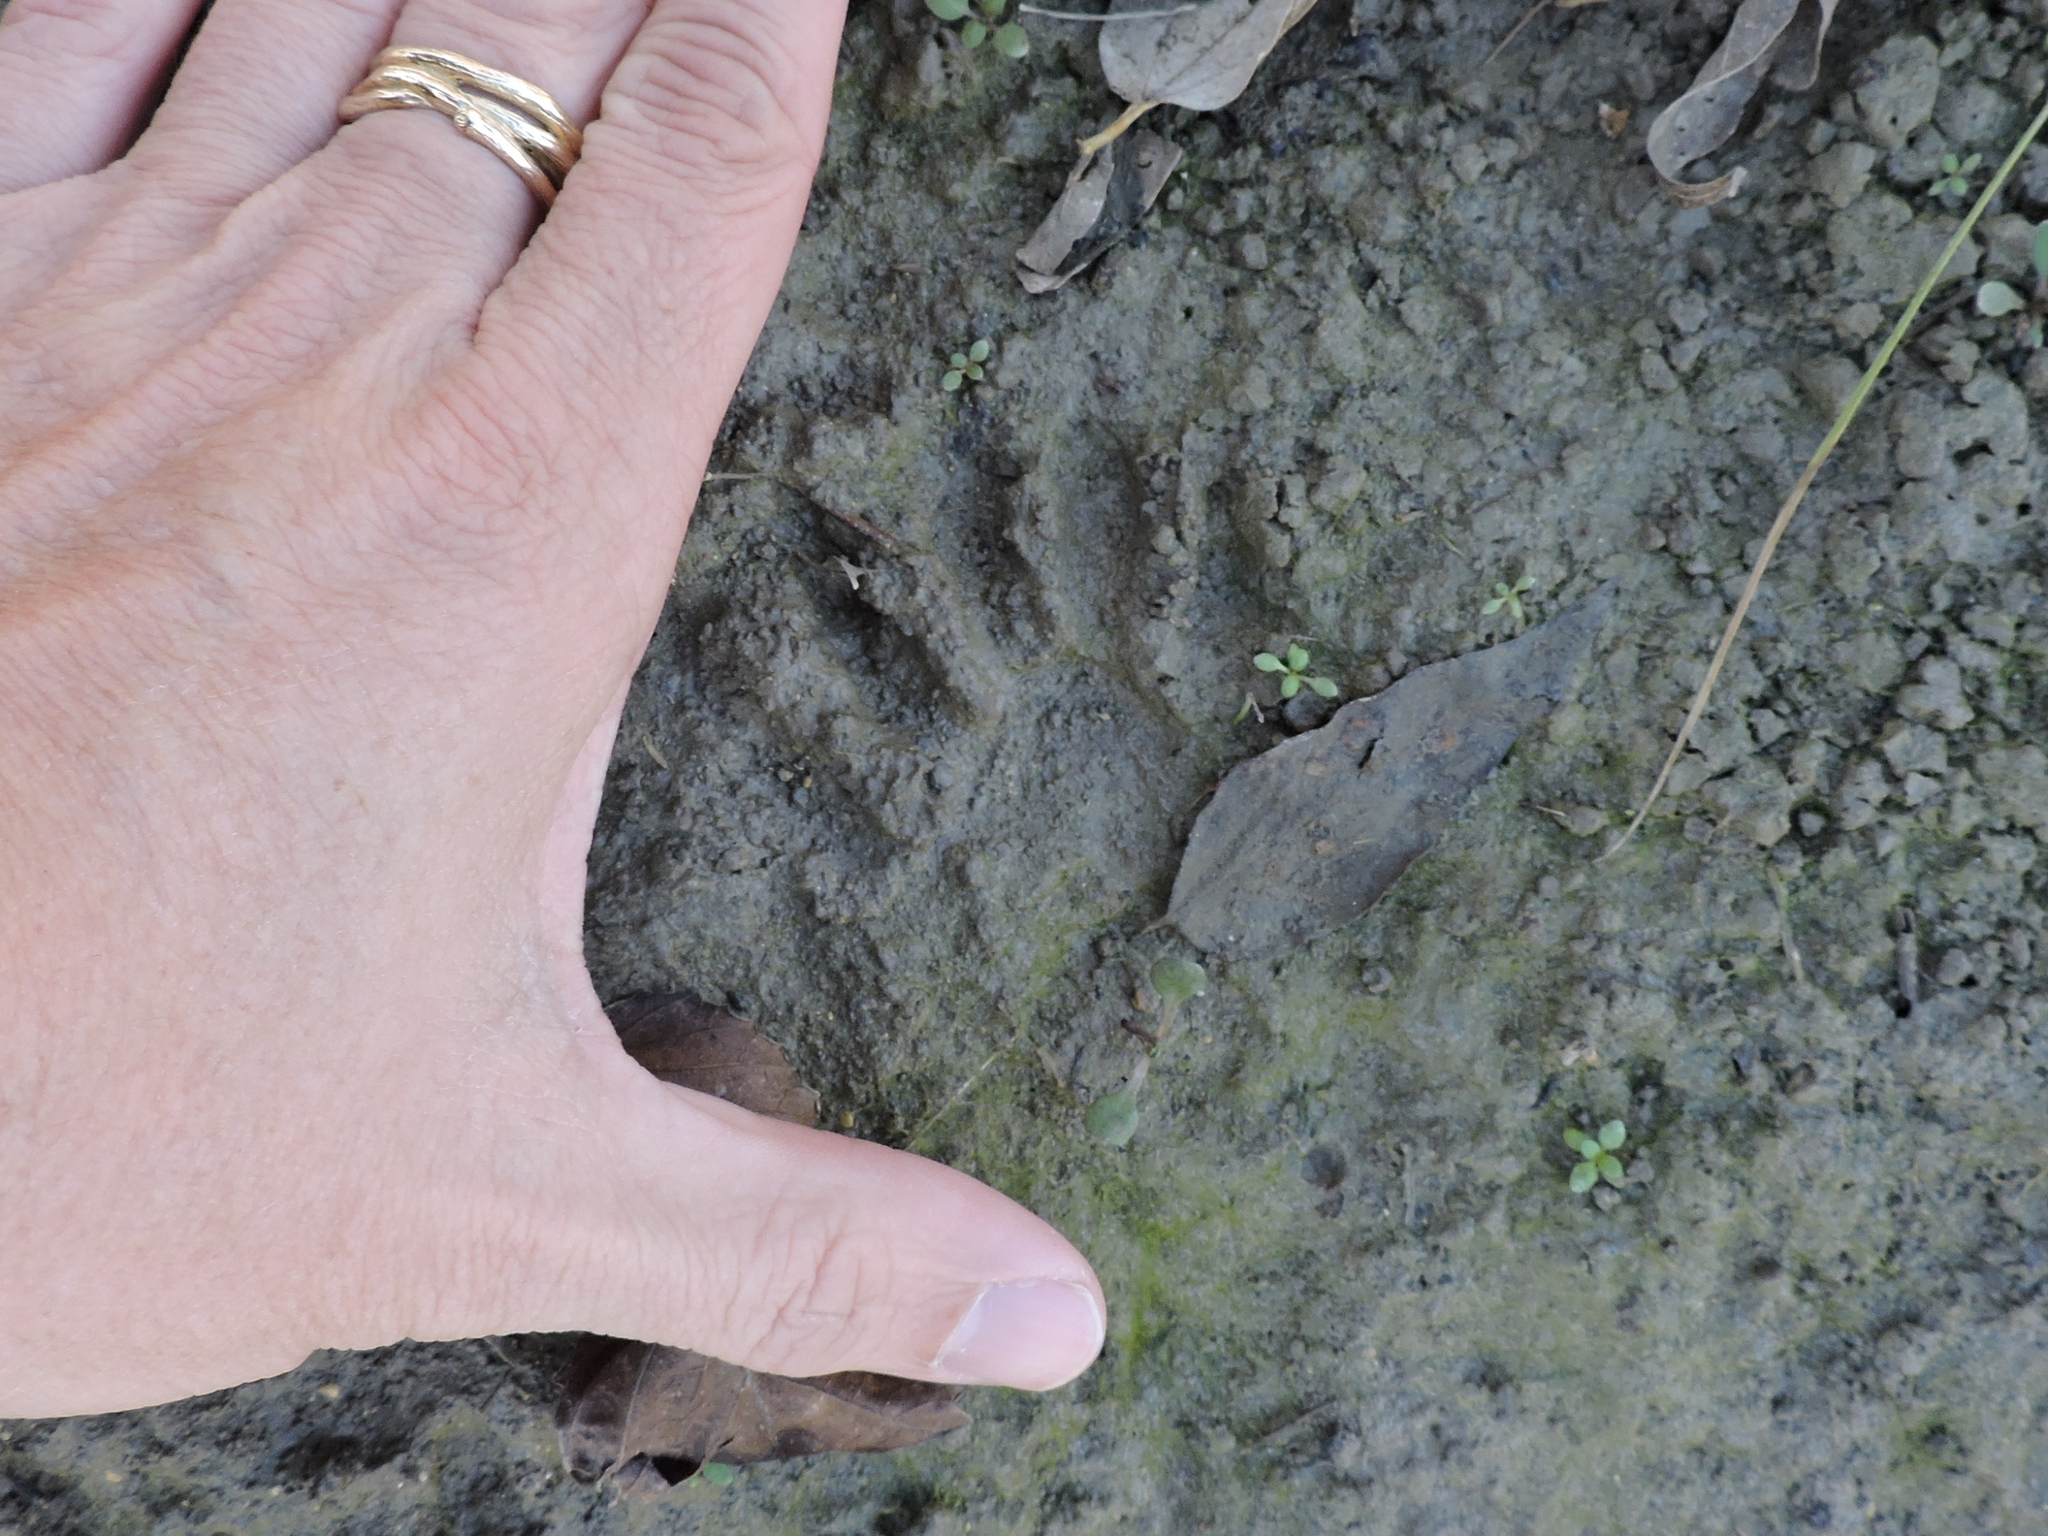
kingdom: Animalia
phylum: Chordata
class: Mammalia
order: Carnivora
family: Procyonidae
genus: Procyon
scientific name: Procyon lotor
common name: Raccoon
